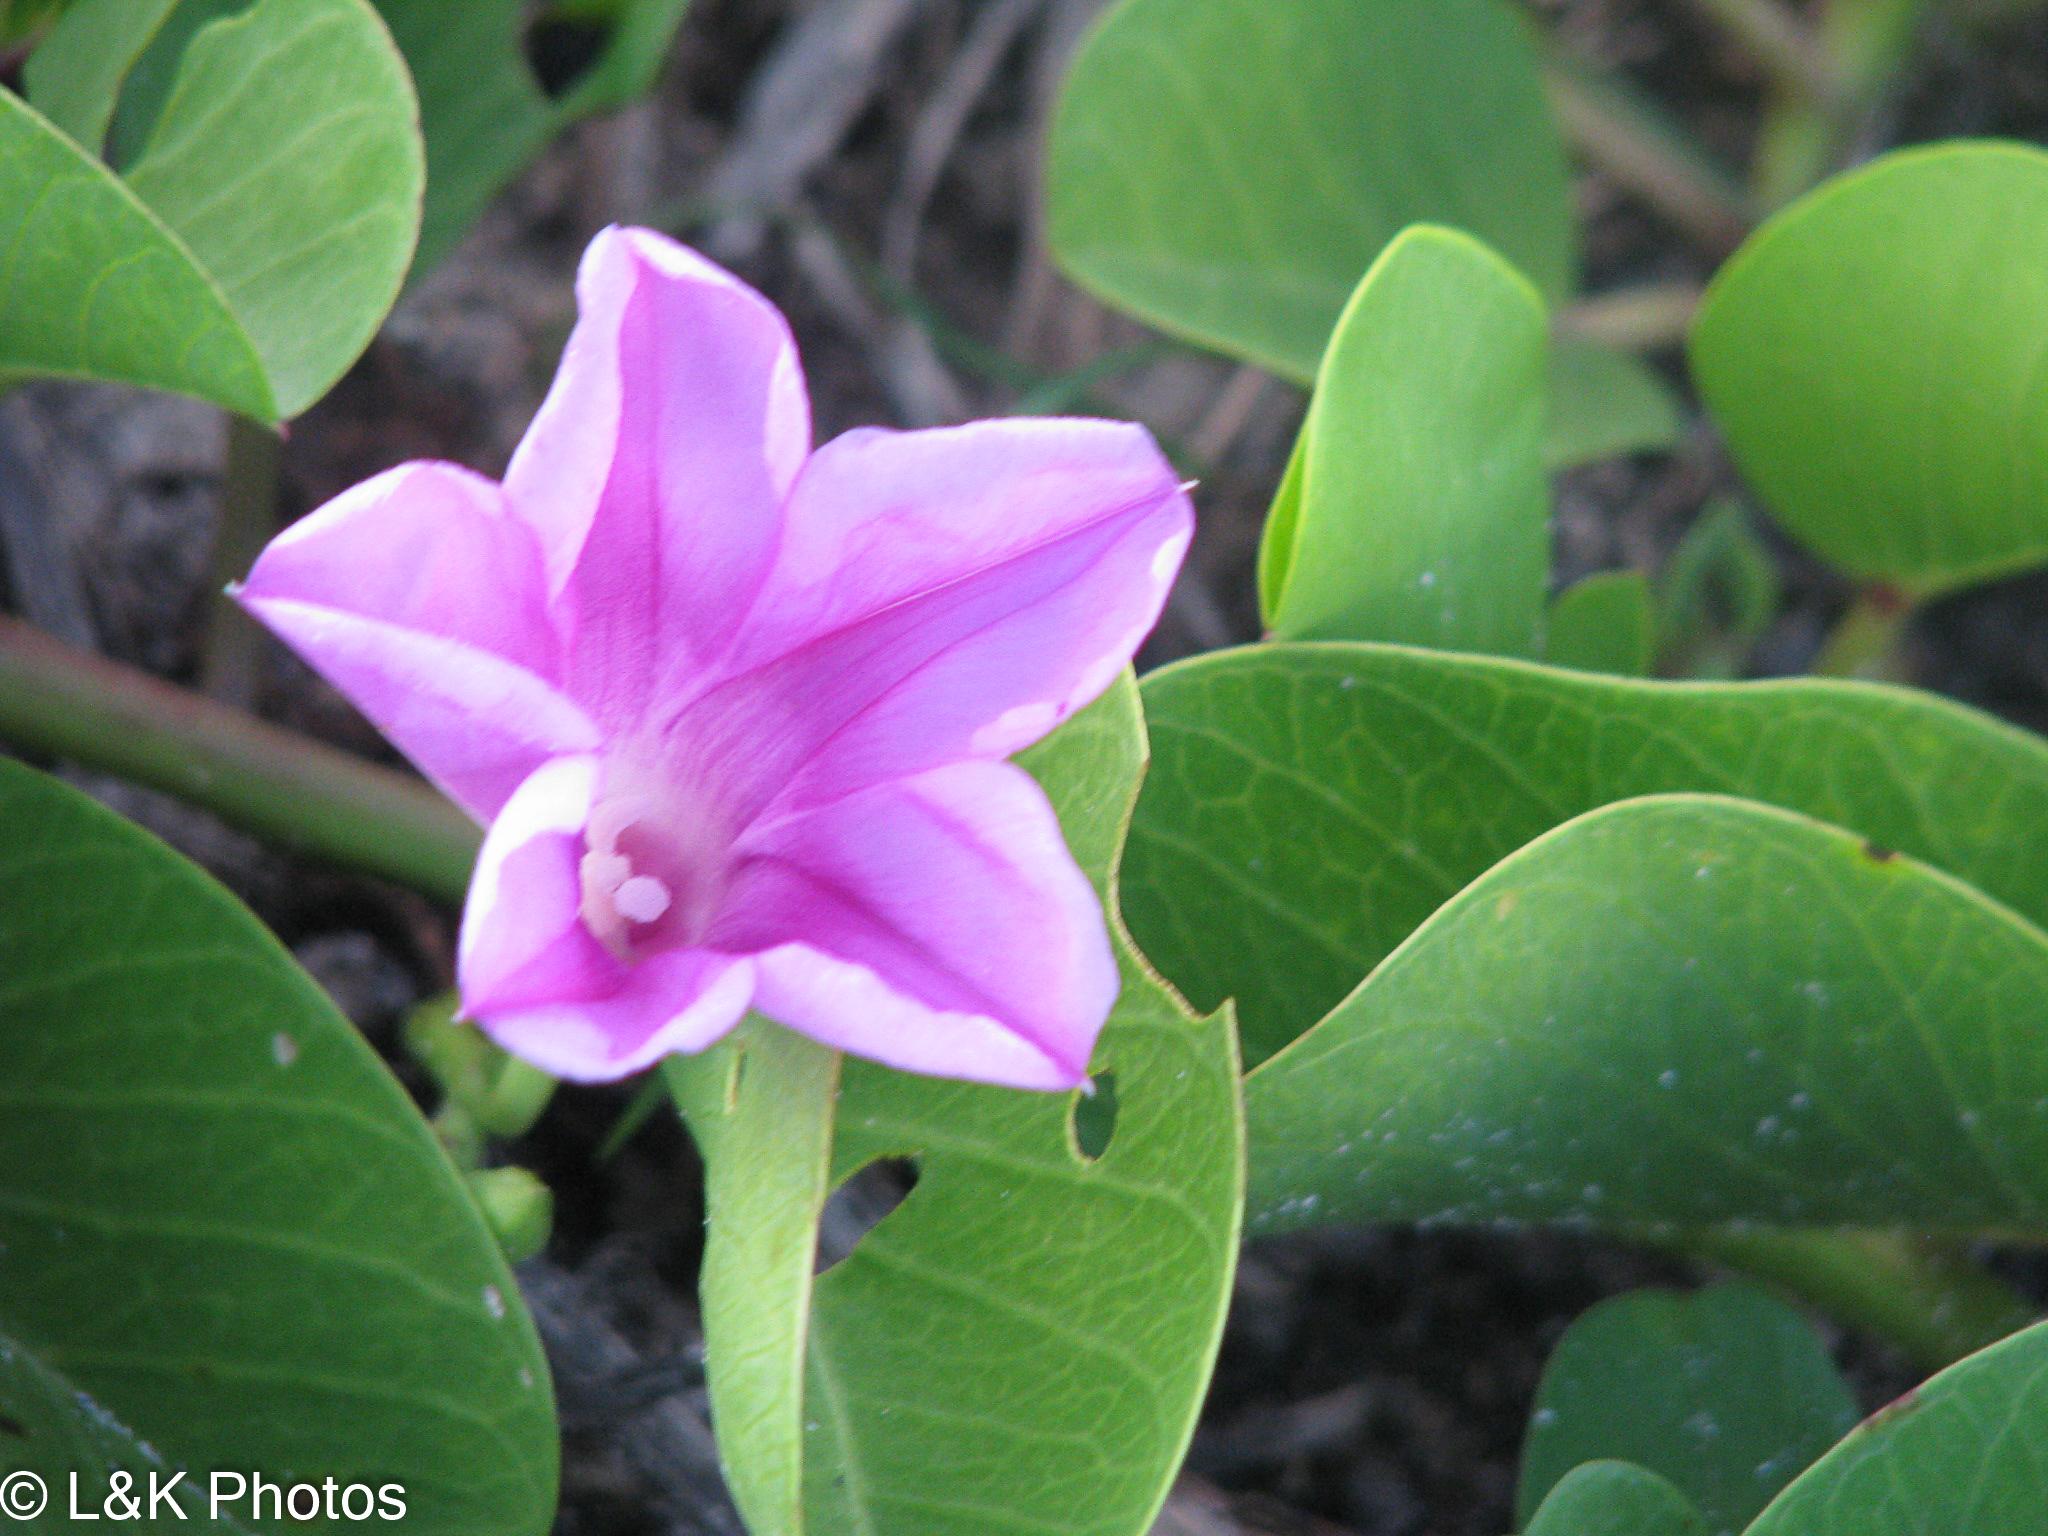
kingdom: Plantae
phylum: Tracheophyta
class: Magnoliopsida
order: Solanales
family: Convolvulaceae
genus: Ipomoea
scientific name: Ipomoea pes-caprae
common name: Beach morning glory
